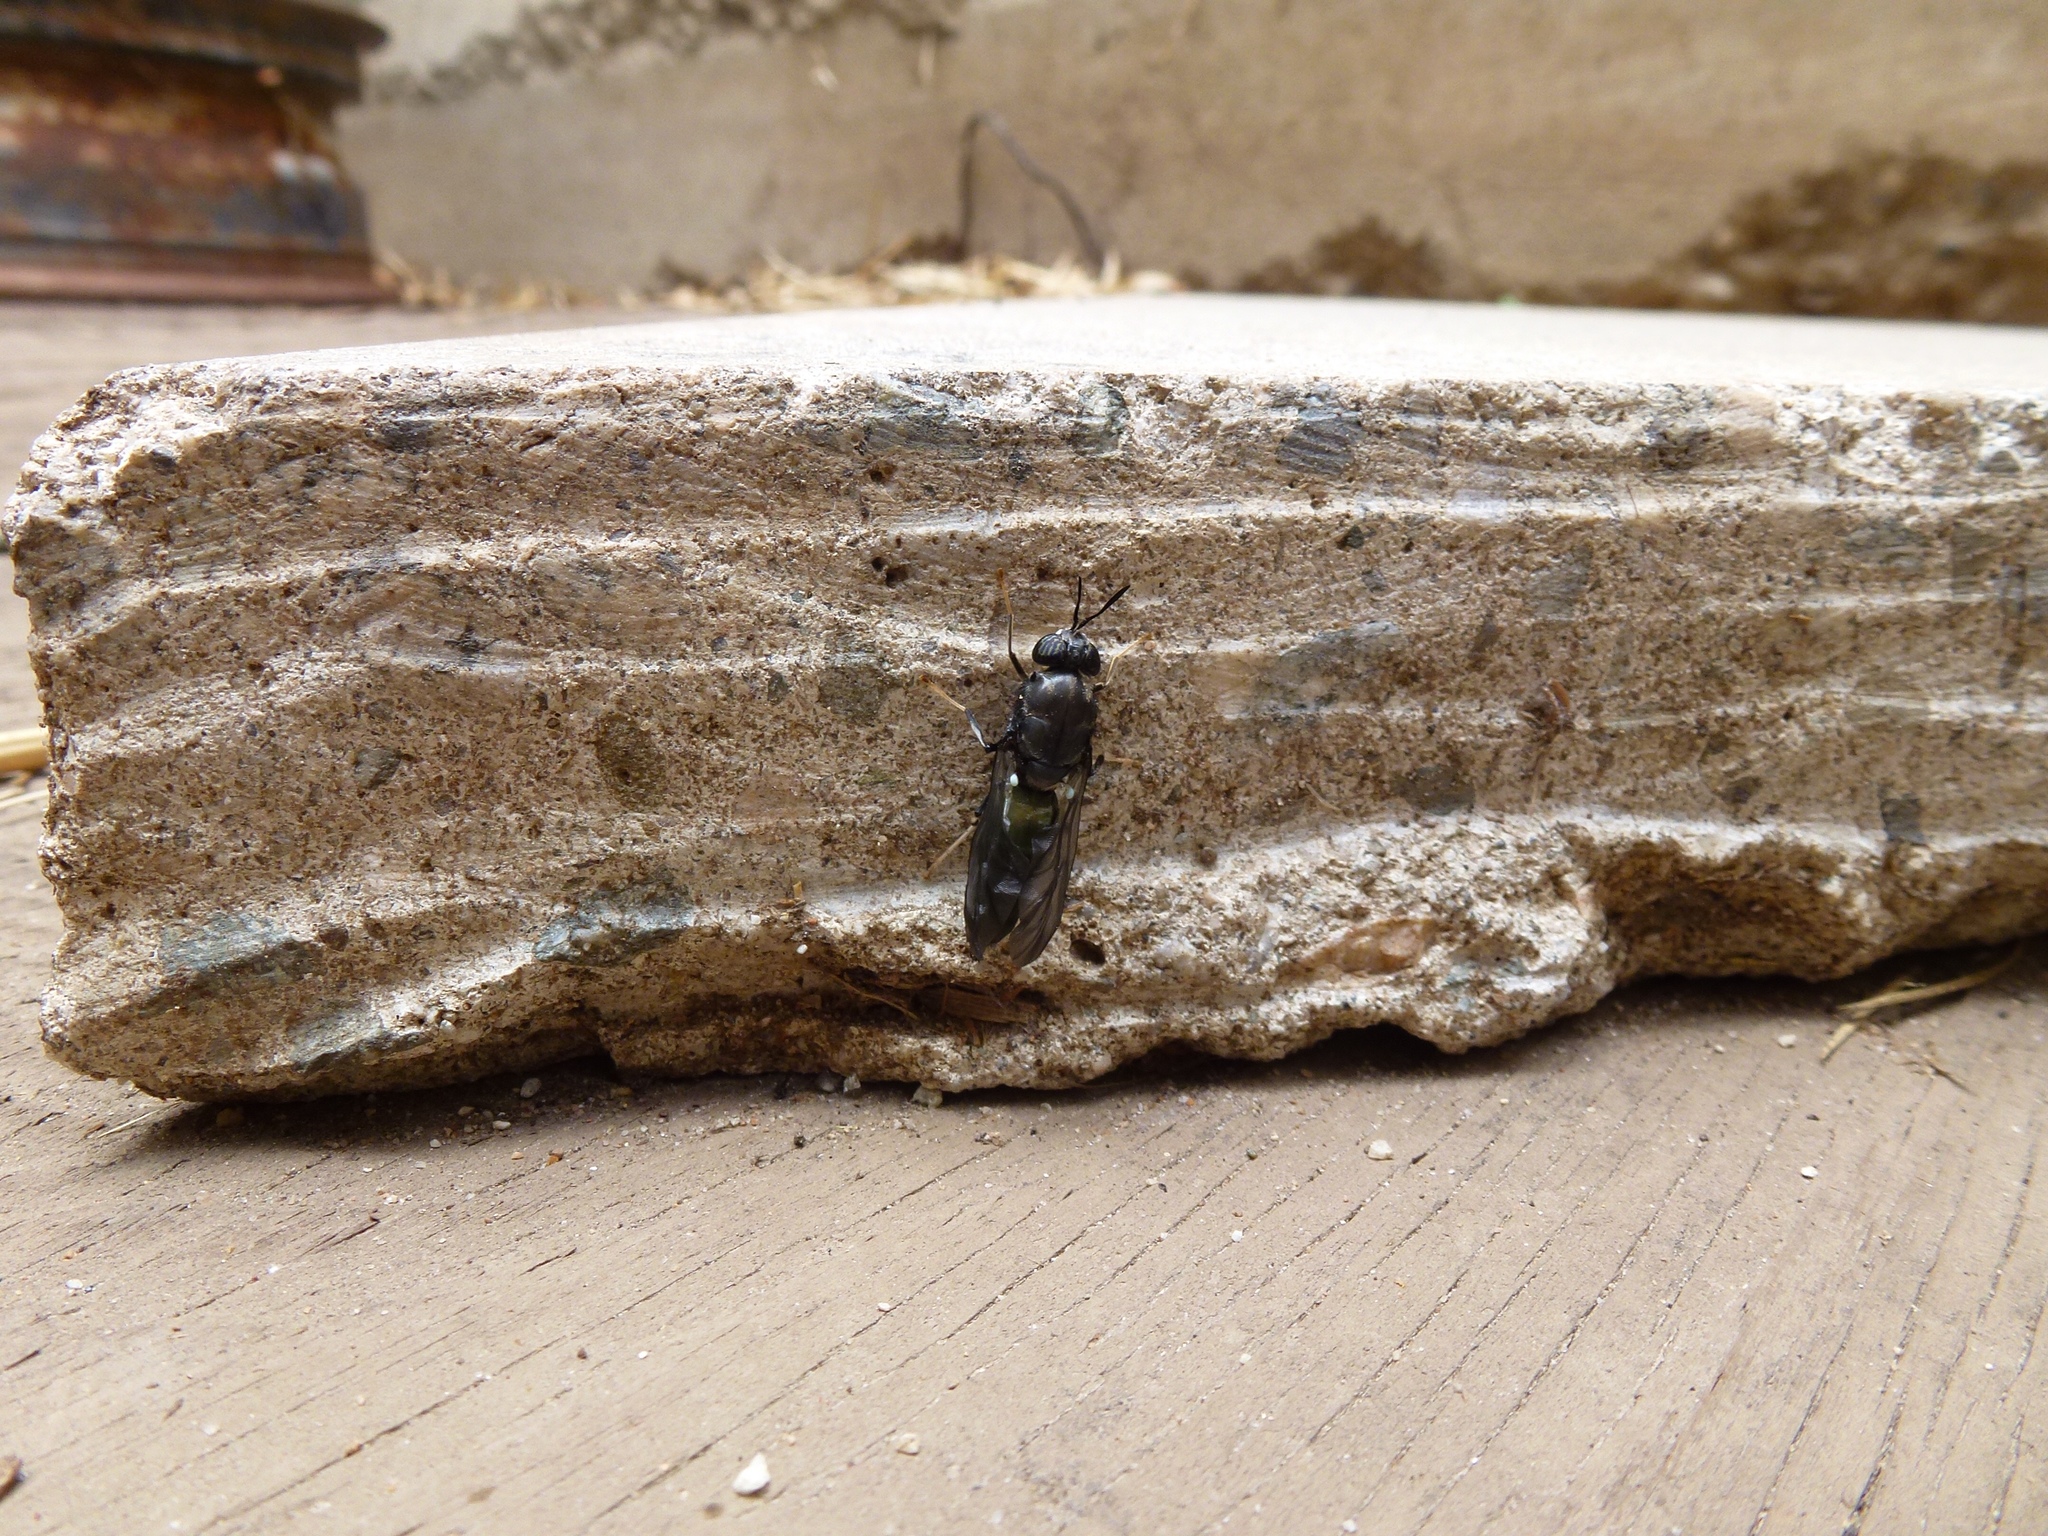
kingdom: Animalia
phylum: Arthropoda
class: Insecta
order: Diptera
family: Stratiomyidae
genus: Hermetia
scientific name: Hermetia illucens
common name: Black soldier fly
